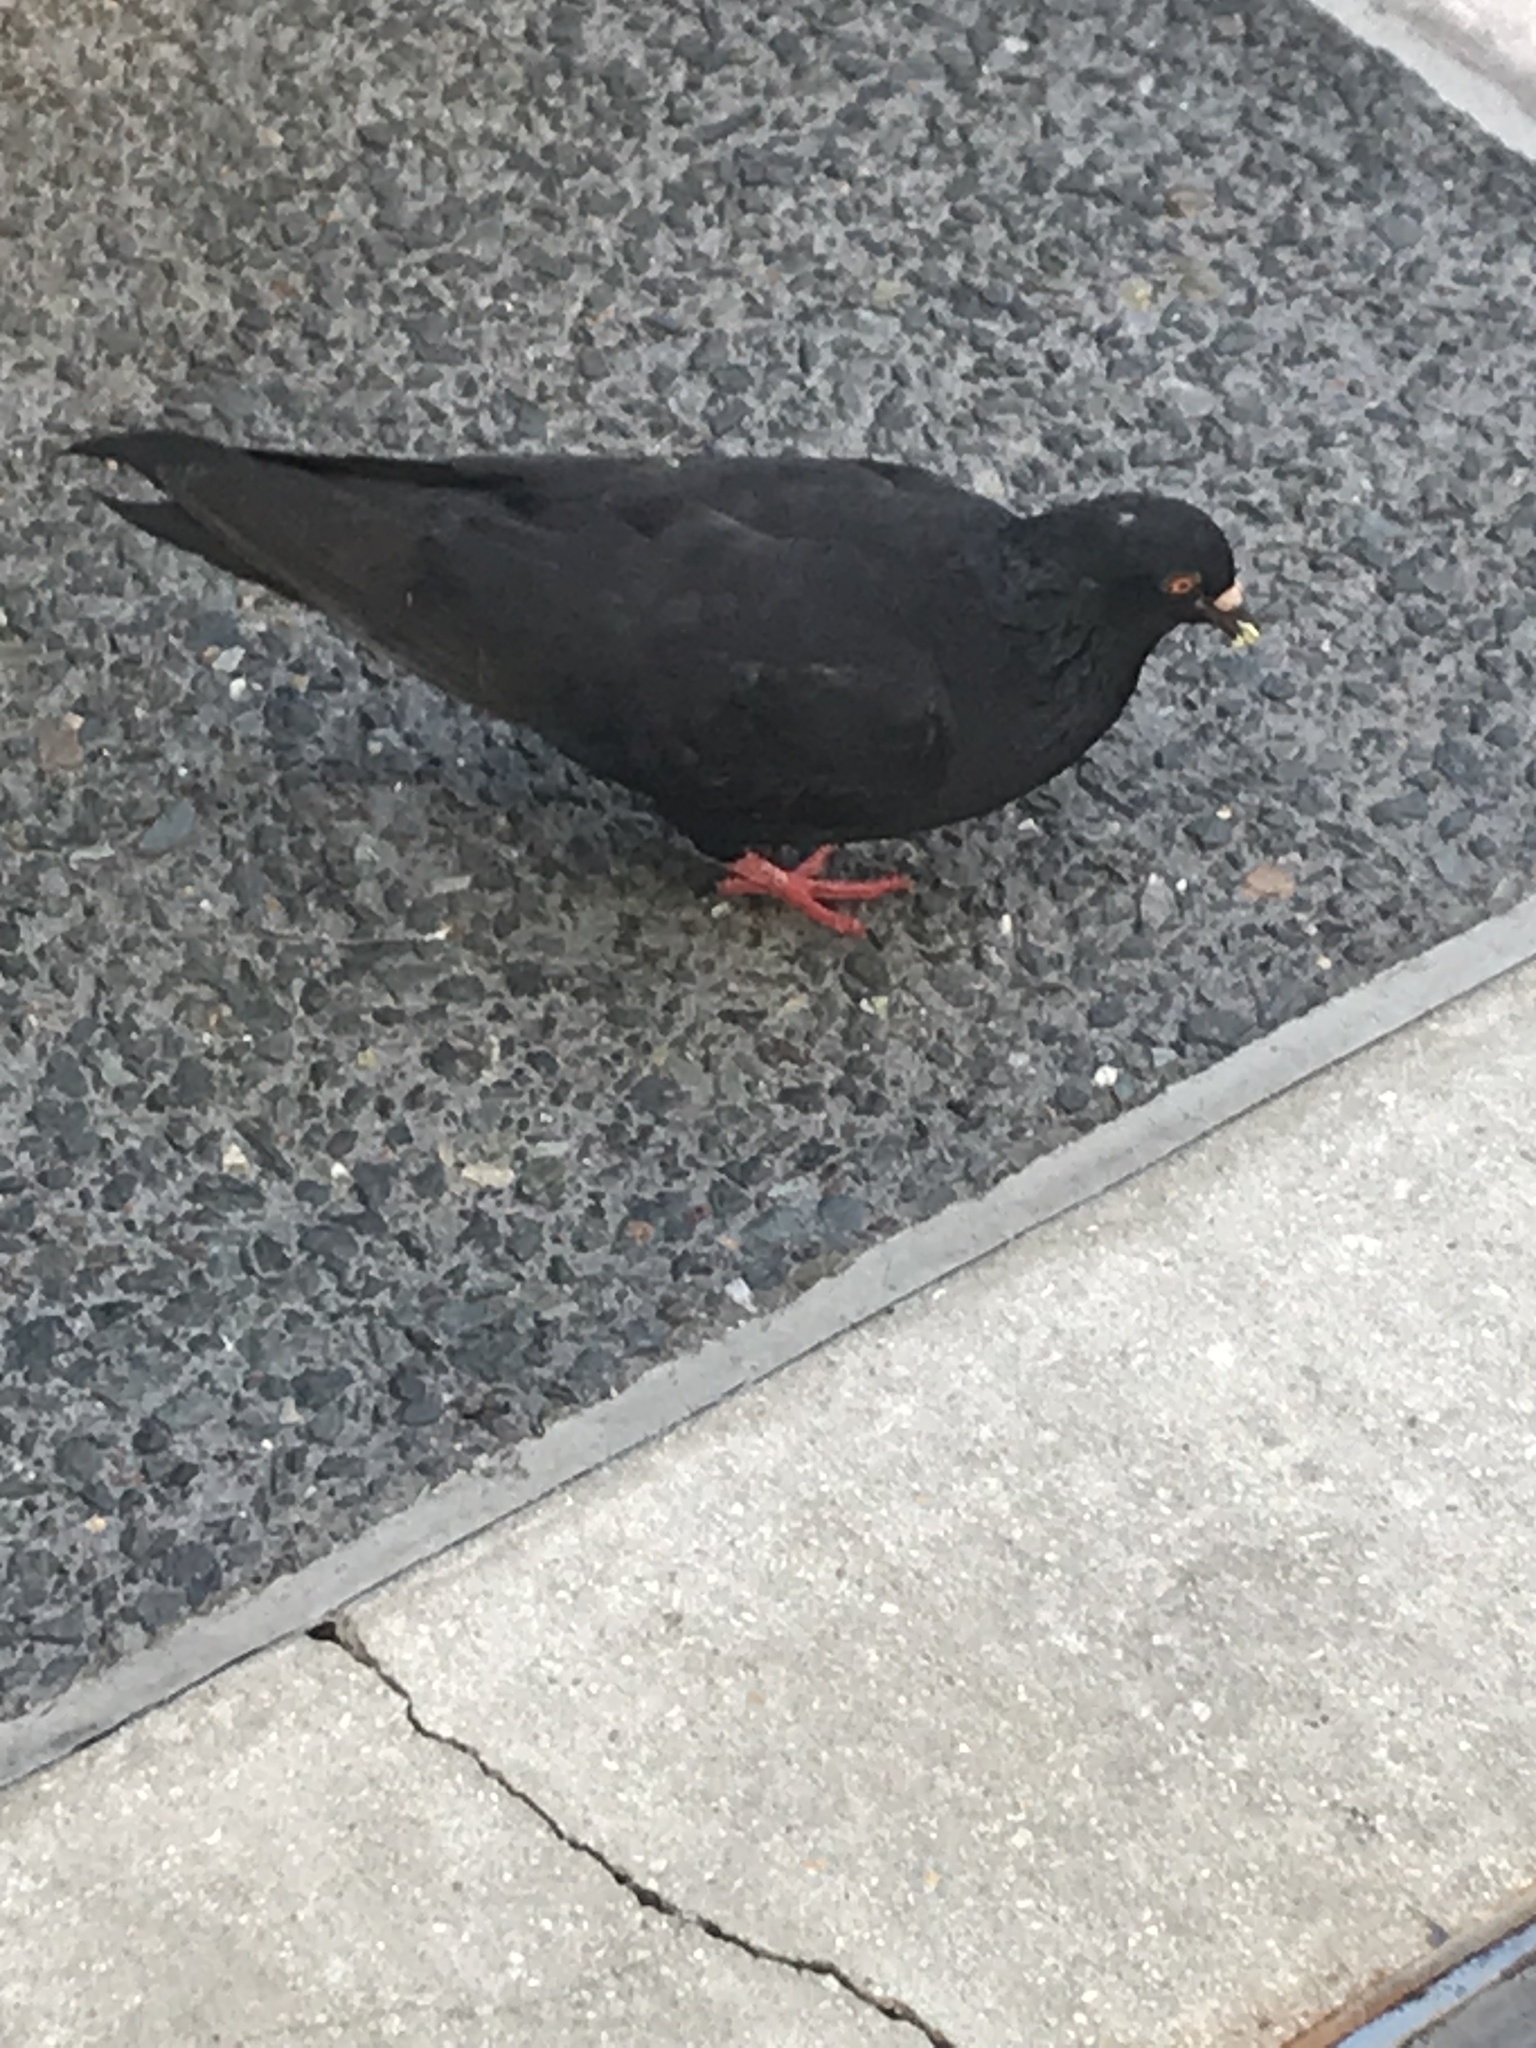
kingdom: Animalia
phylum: Chordata
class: Aves
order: Columbiformes
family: Columbidae
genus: Columba
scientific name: Columba livia
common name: Rock pigeon
